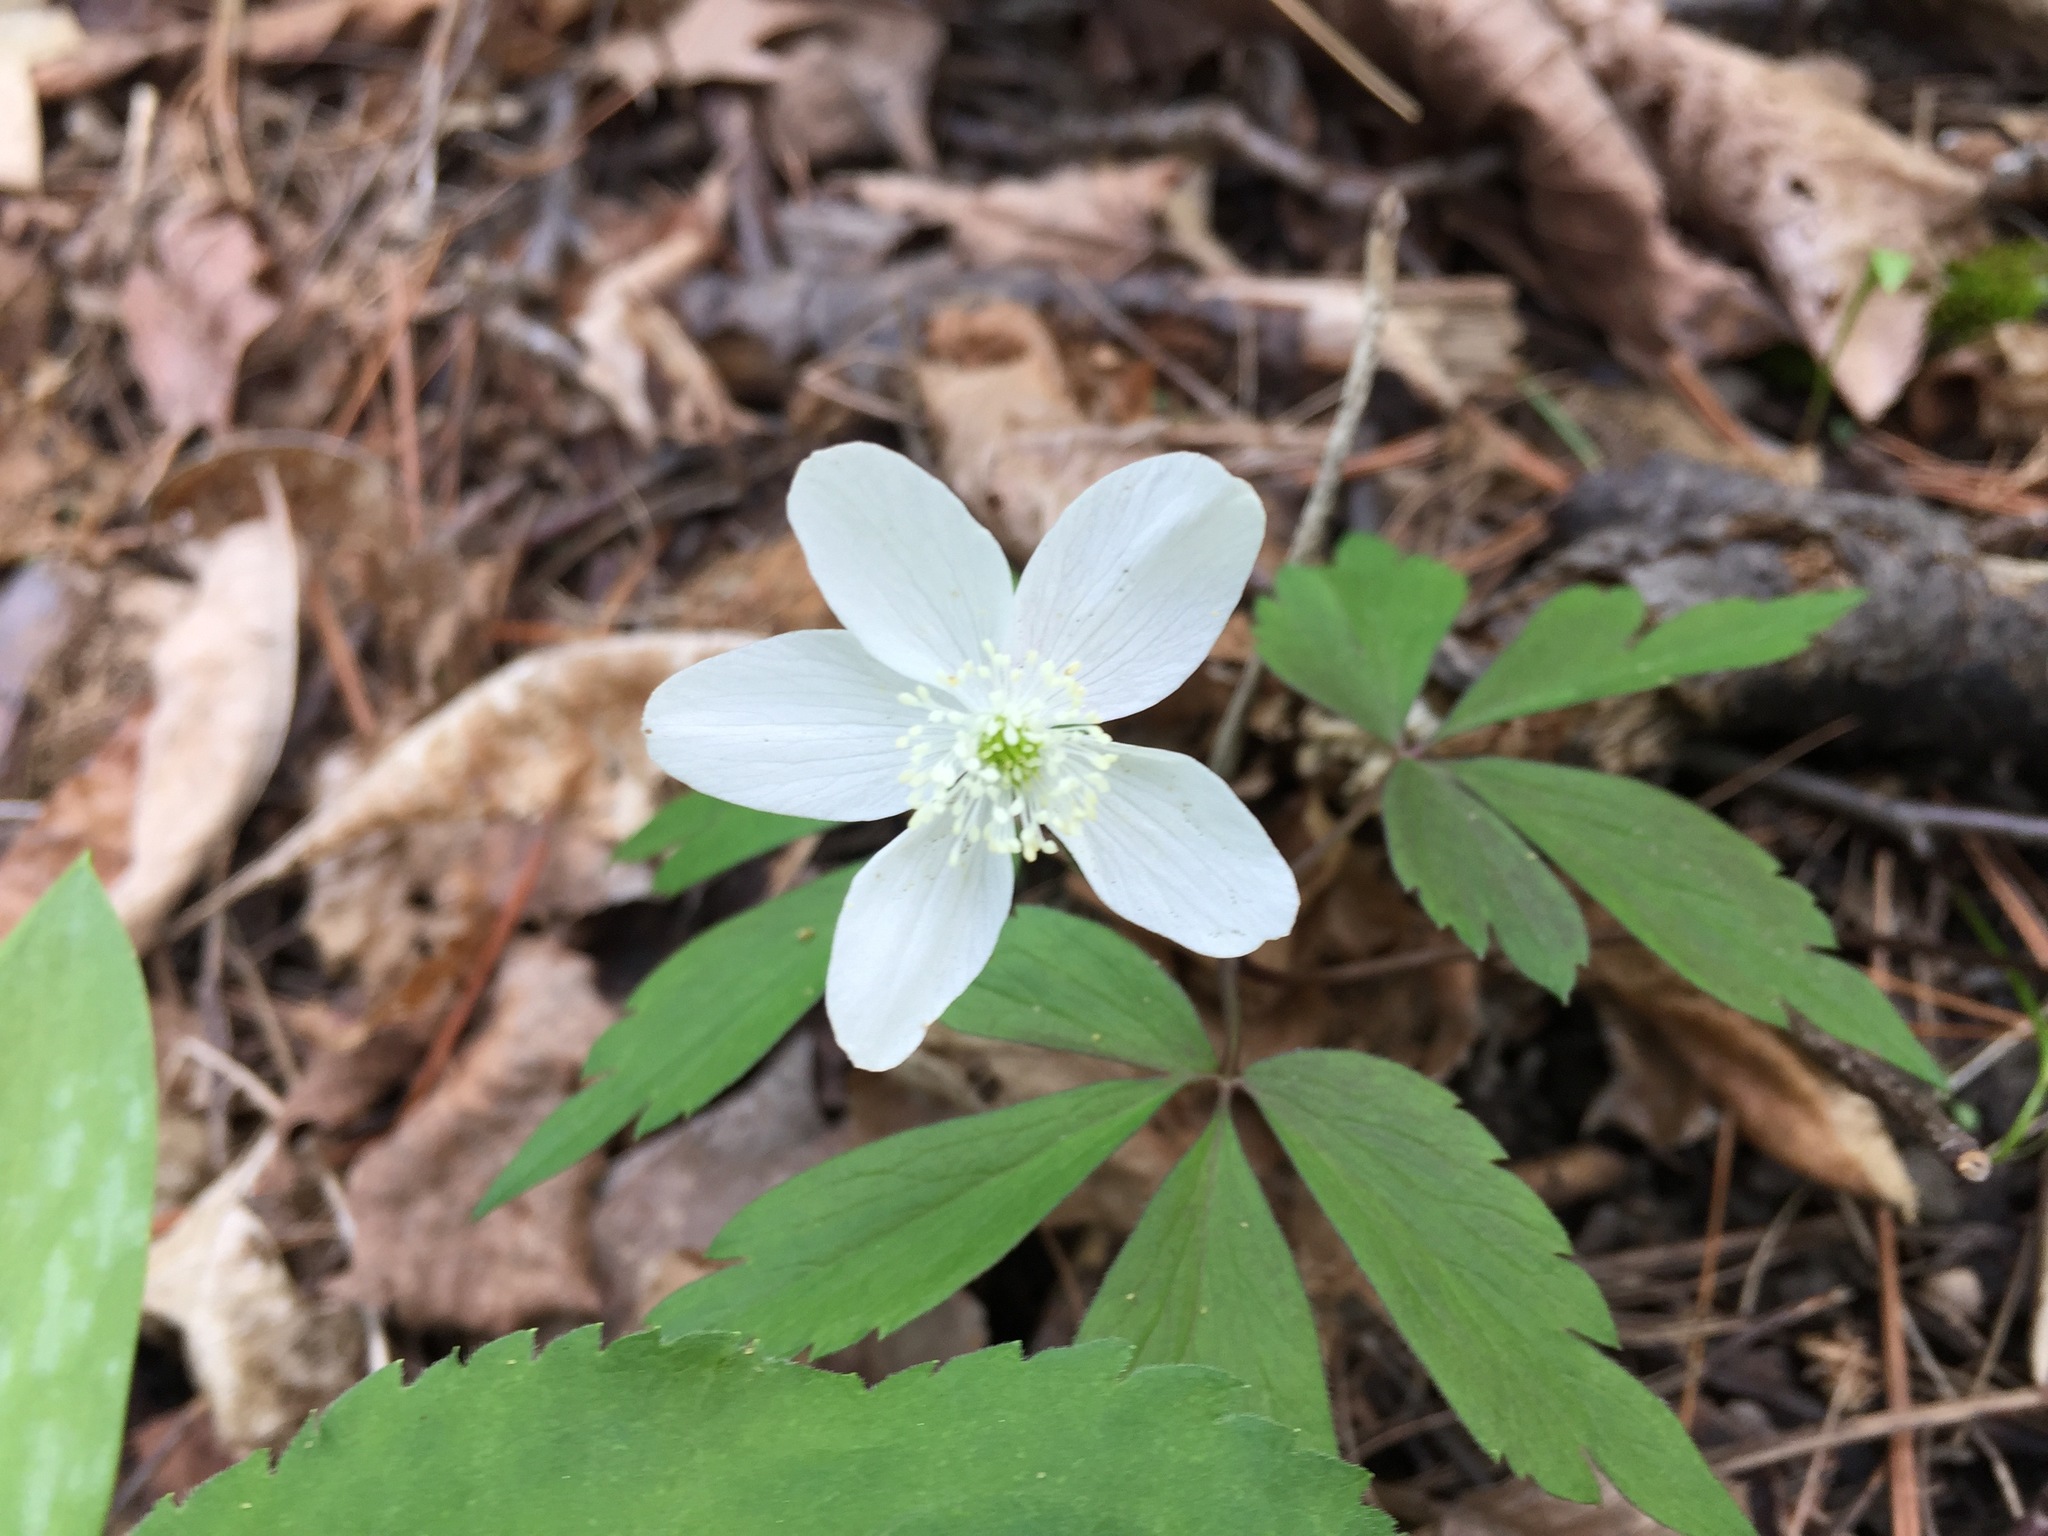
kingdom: Plantae
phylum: Tracheophyta
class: Magnoliopsida
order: Ranunculales
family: Ranunculaceae
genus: Anemone
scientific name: Anemone quinquefolia
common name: Wood anemone
